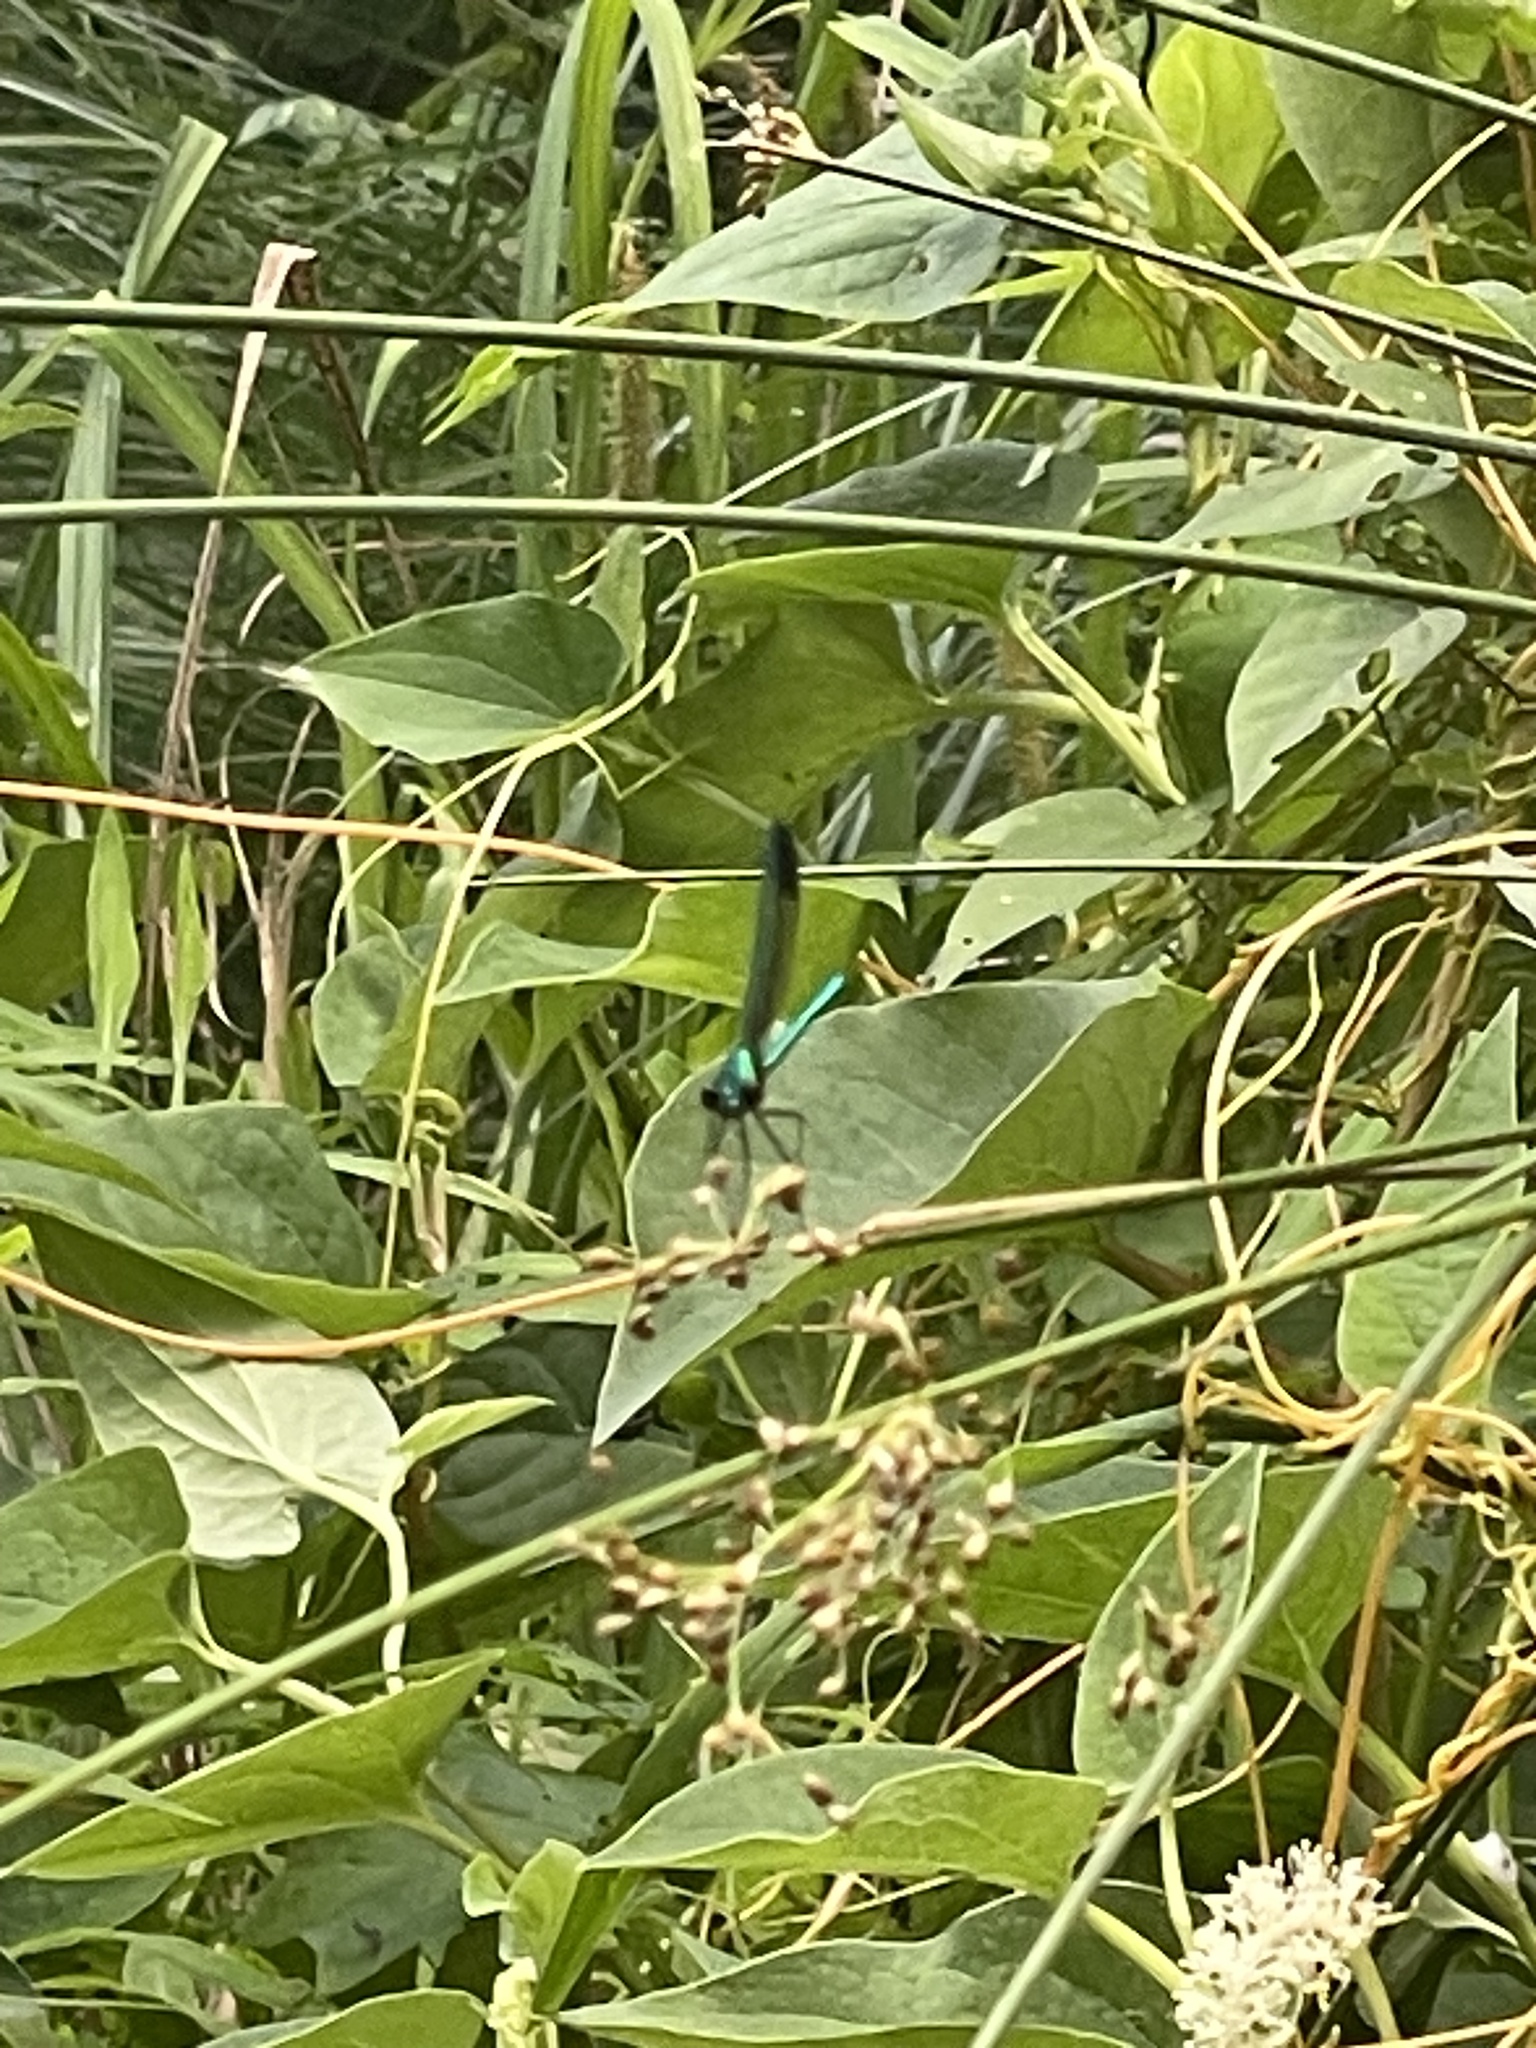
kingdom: Animalia
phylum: Arthropoda
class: Insecta
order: Odonata
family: Calopterygidae
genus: Calopteryx
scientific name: Calopteryx dimidiata
